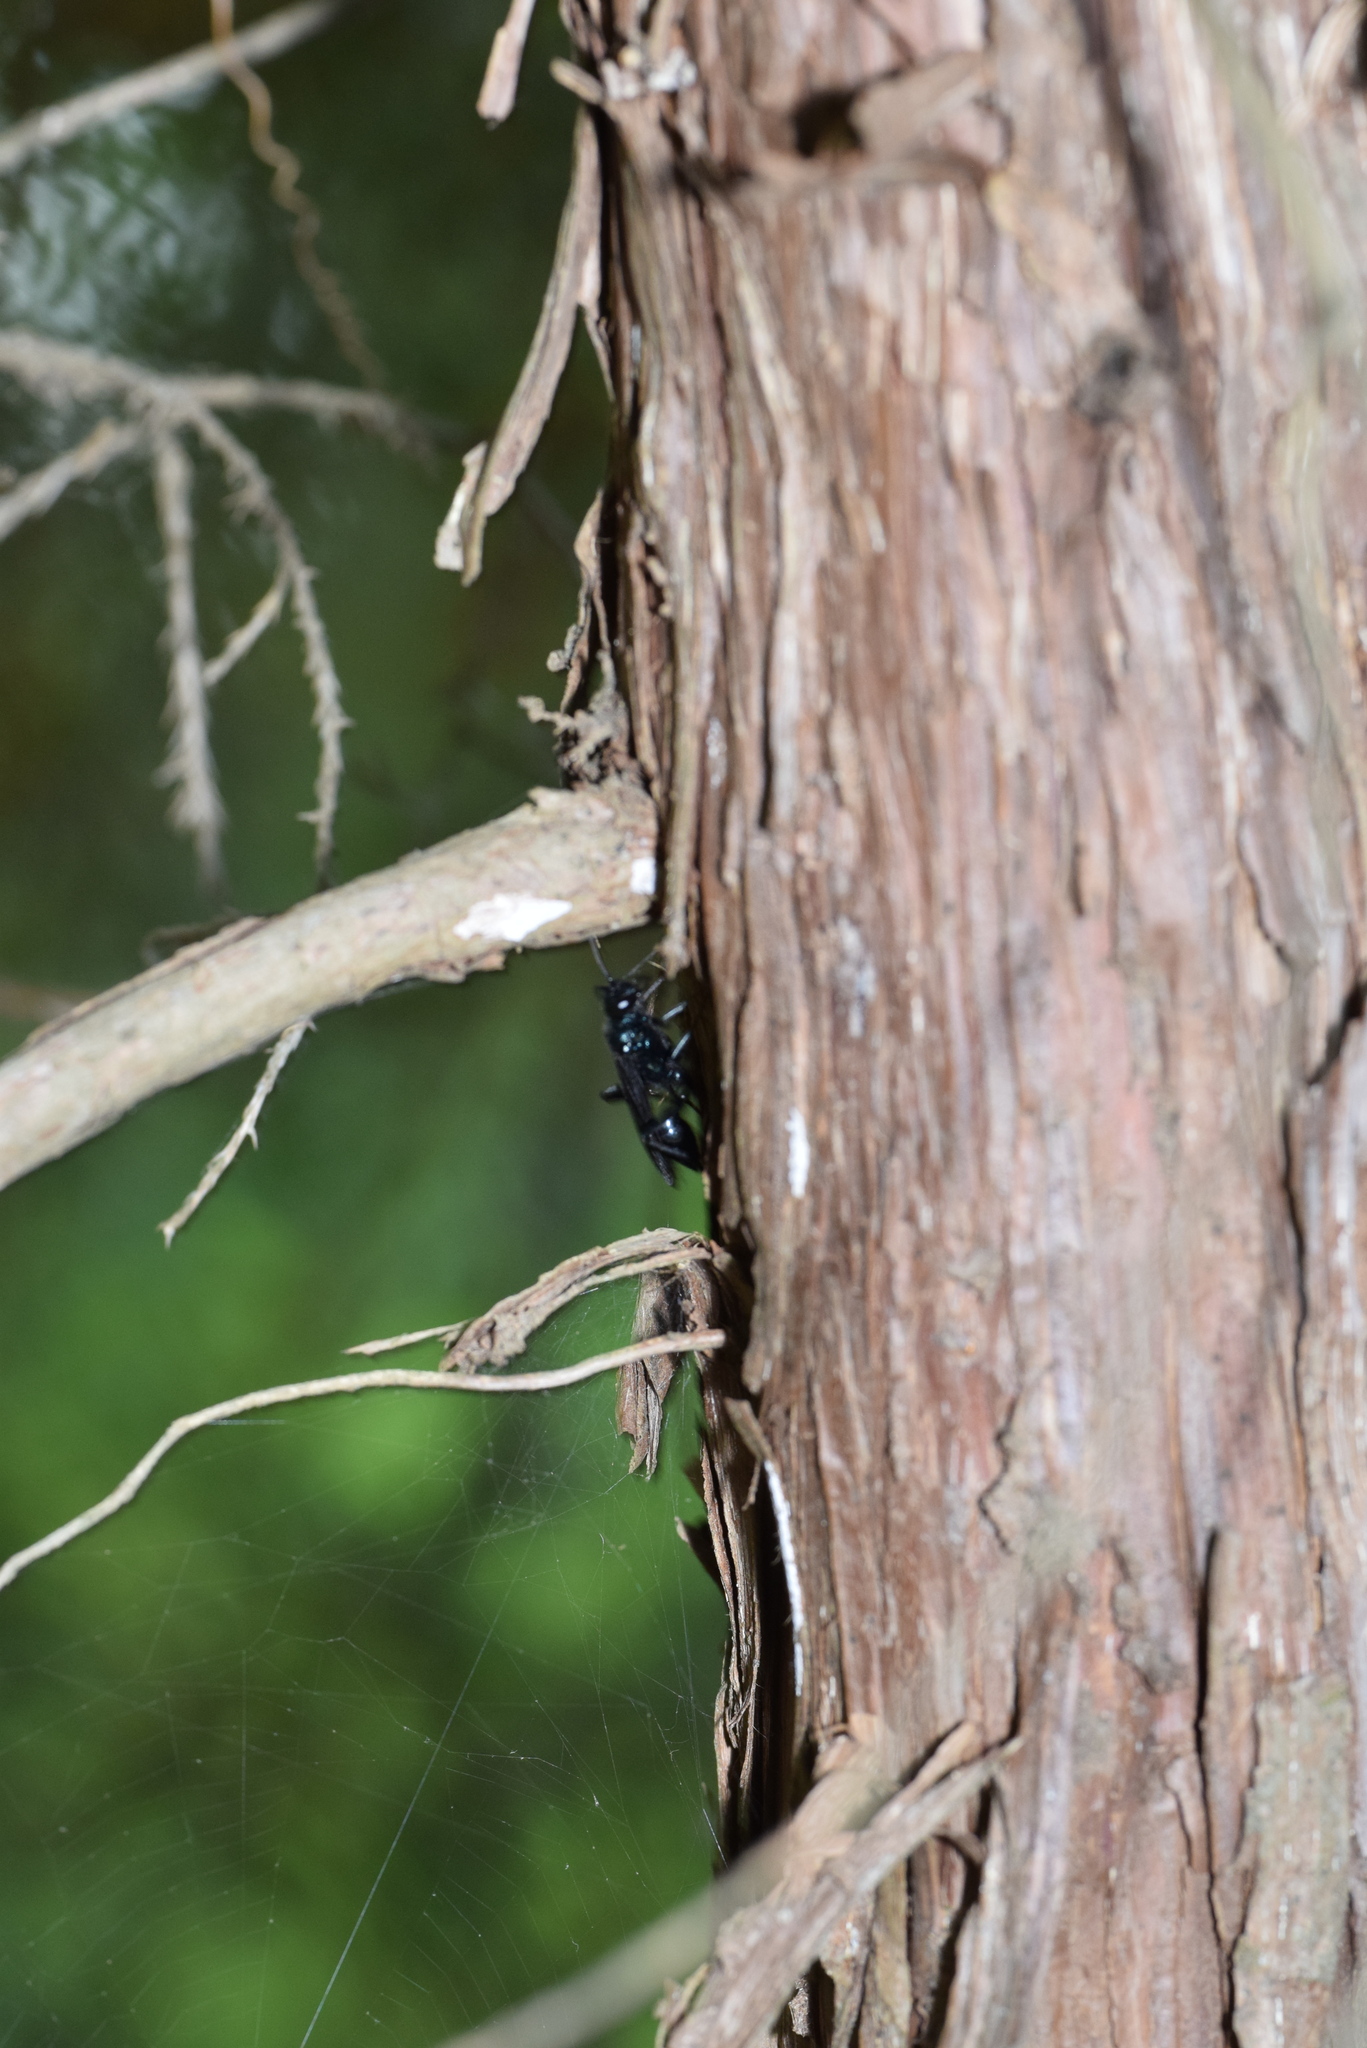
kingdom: Animalia
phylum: Arthropoda
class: Insecta
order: Hymenoptera
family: Sphecidae
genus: Chalybion
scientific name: Chalybion californicum
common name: Mud dauber
